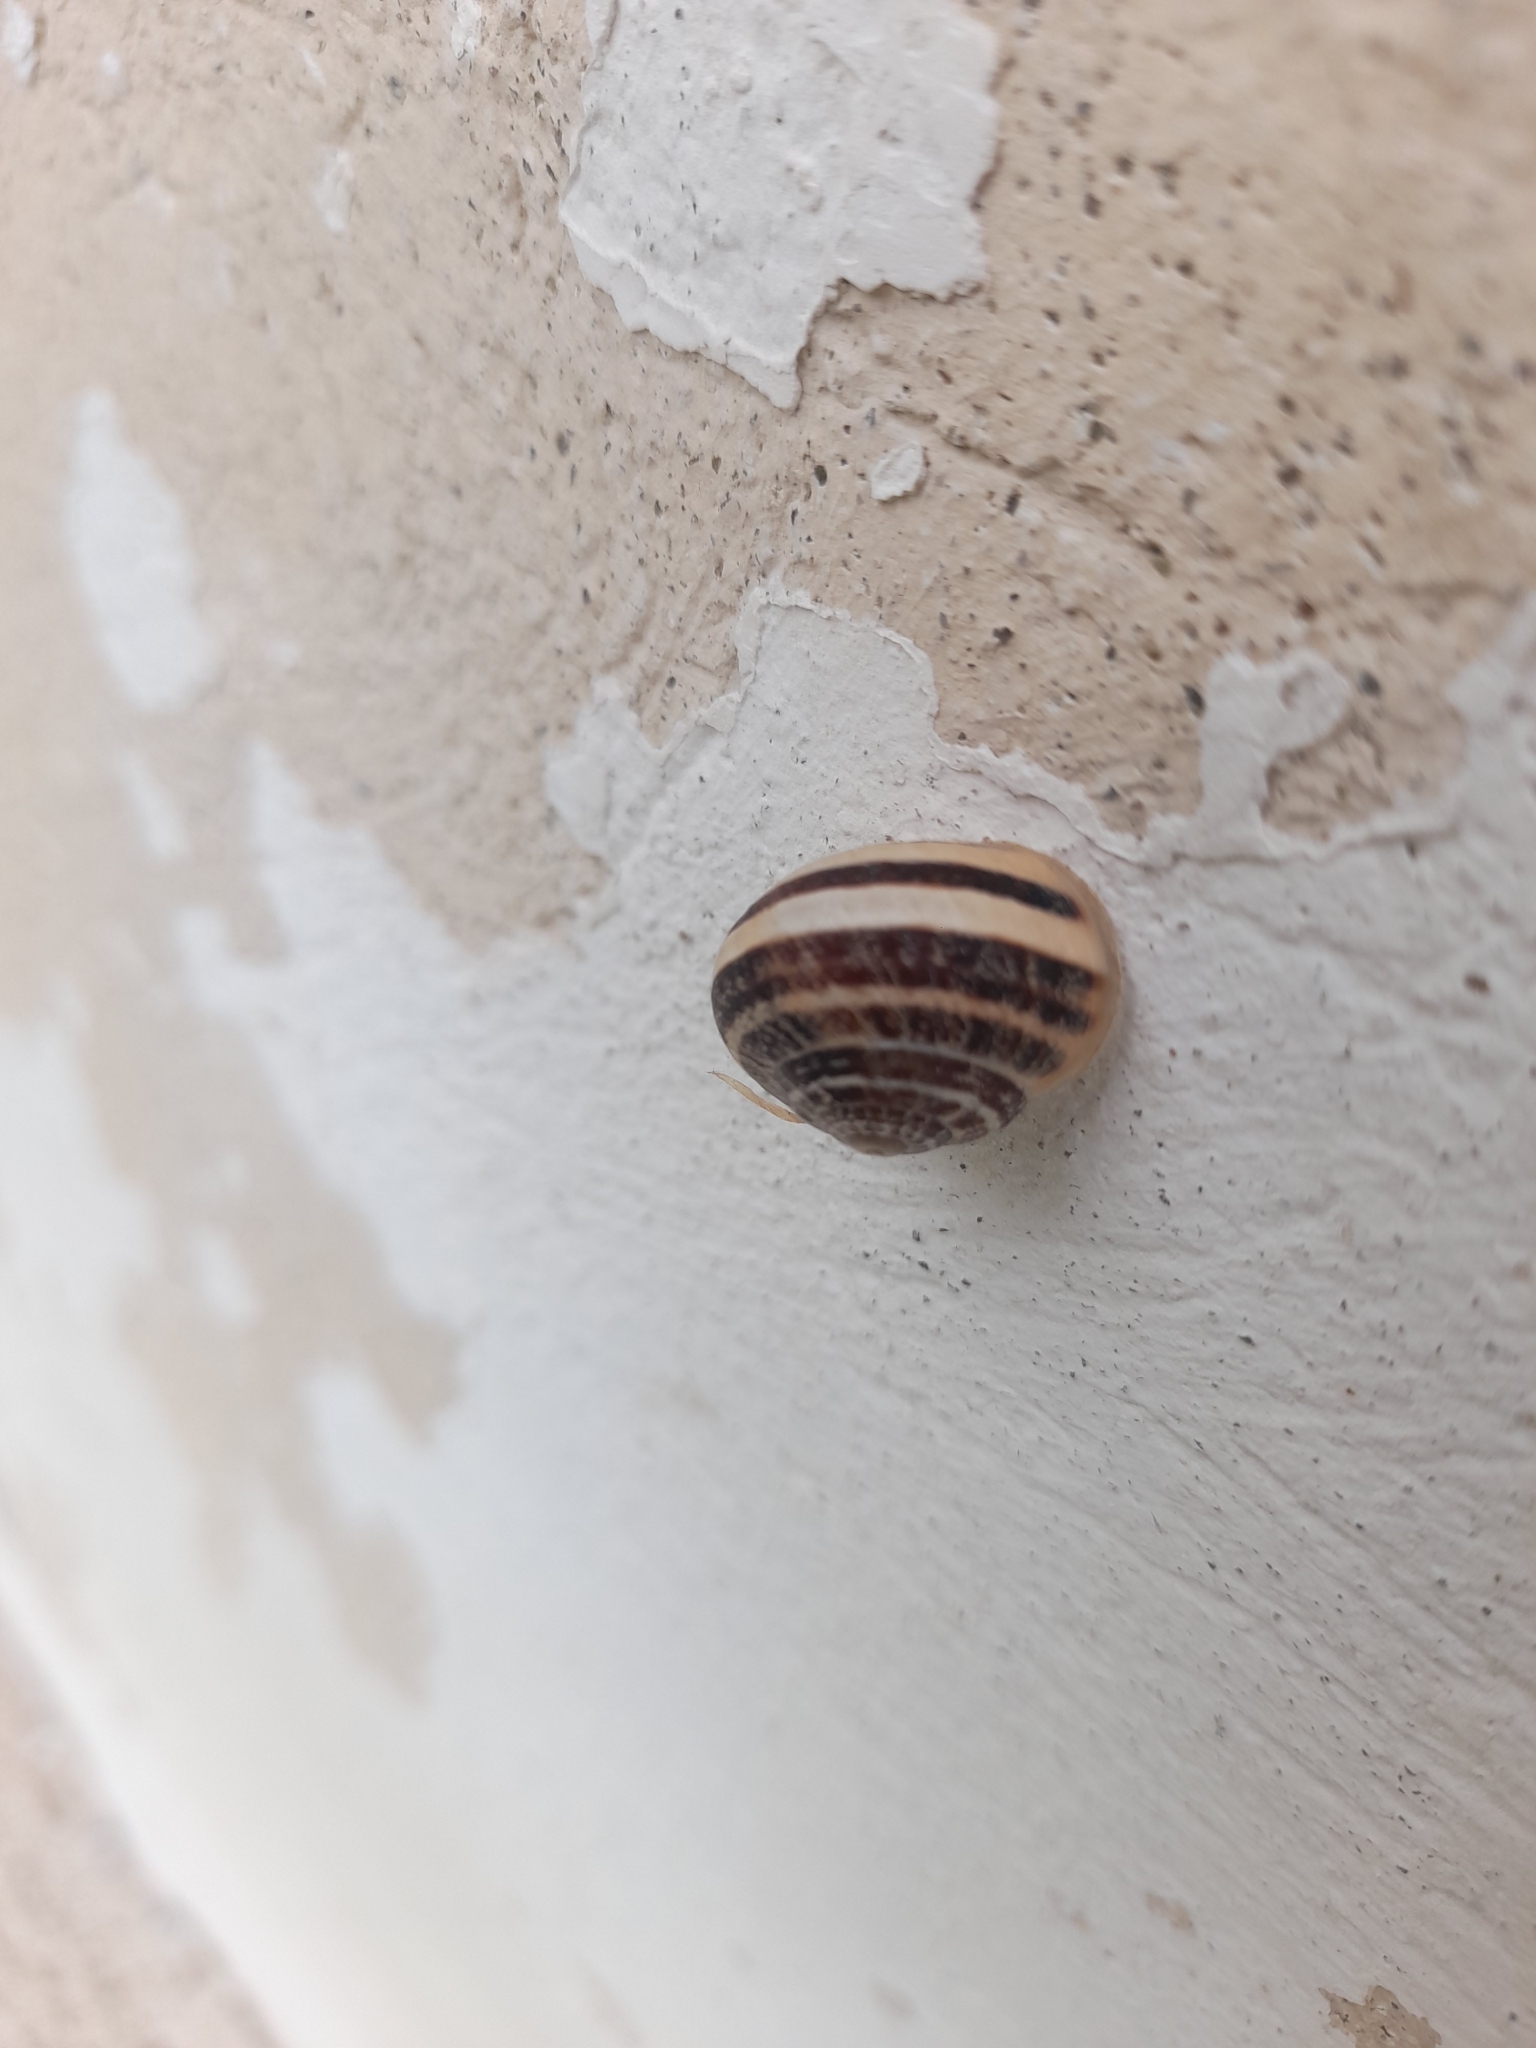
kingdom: Animalia
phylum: Mollusca
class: Gastropoda
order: Stylommatophora
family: Helicidae
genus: Eobania
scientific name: Eobania vermiculata
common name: Chocolateband snail
